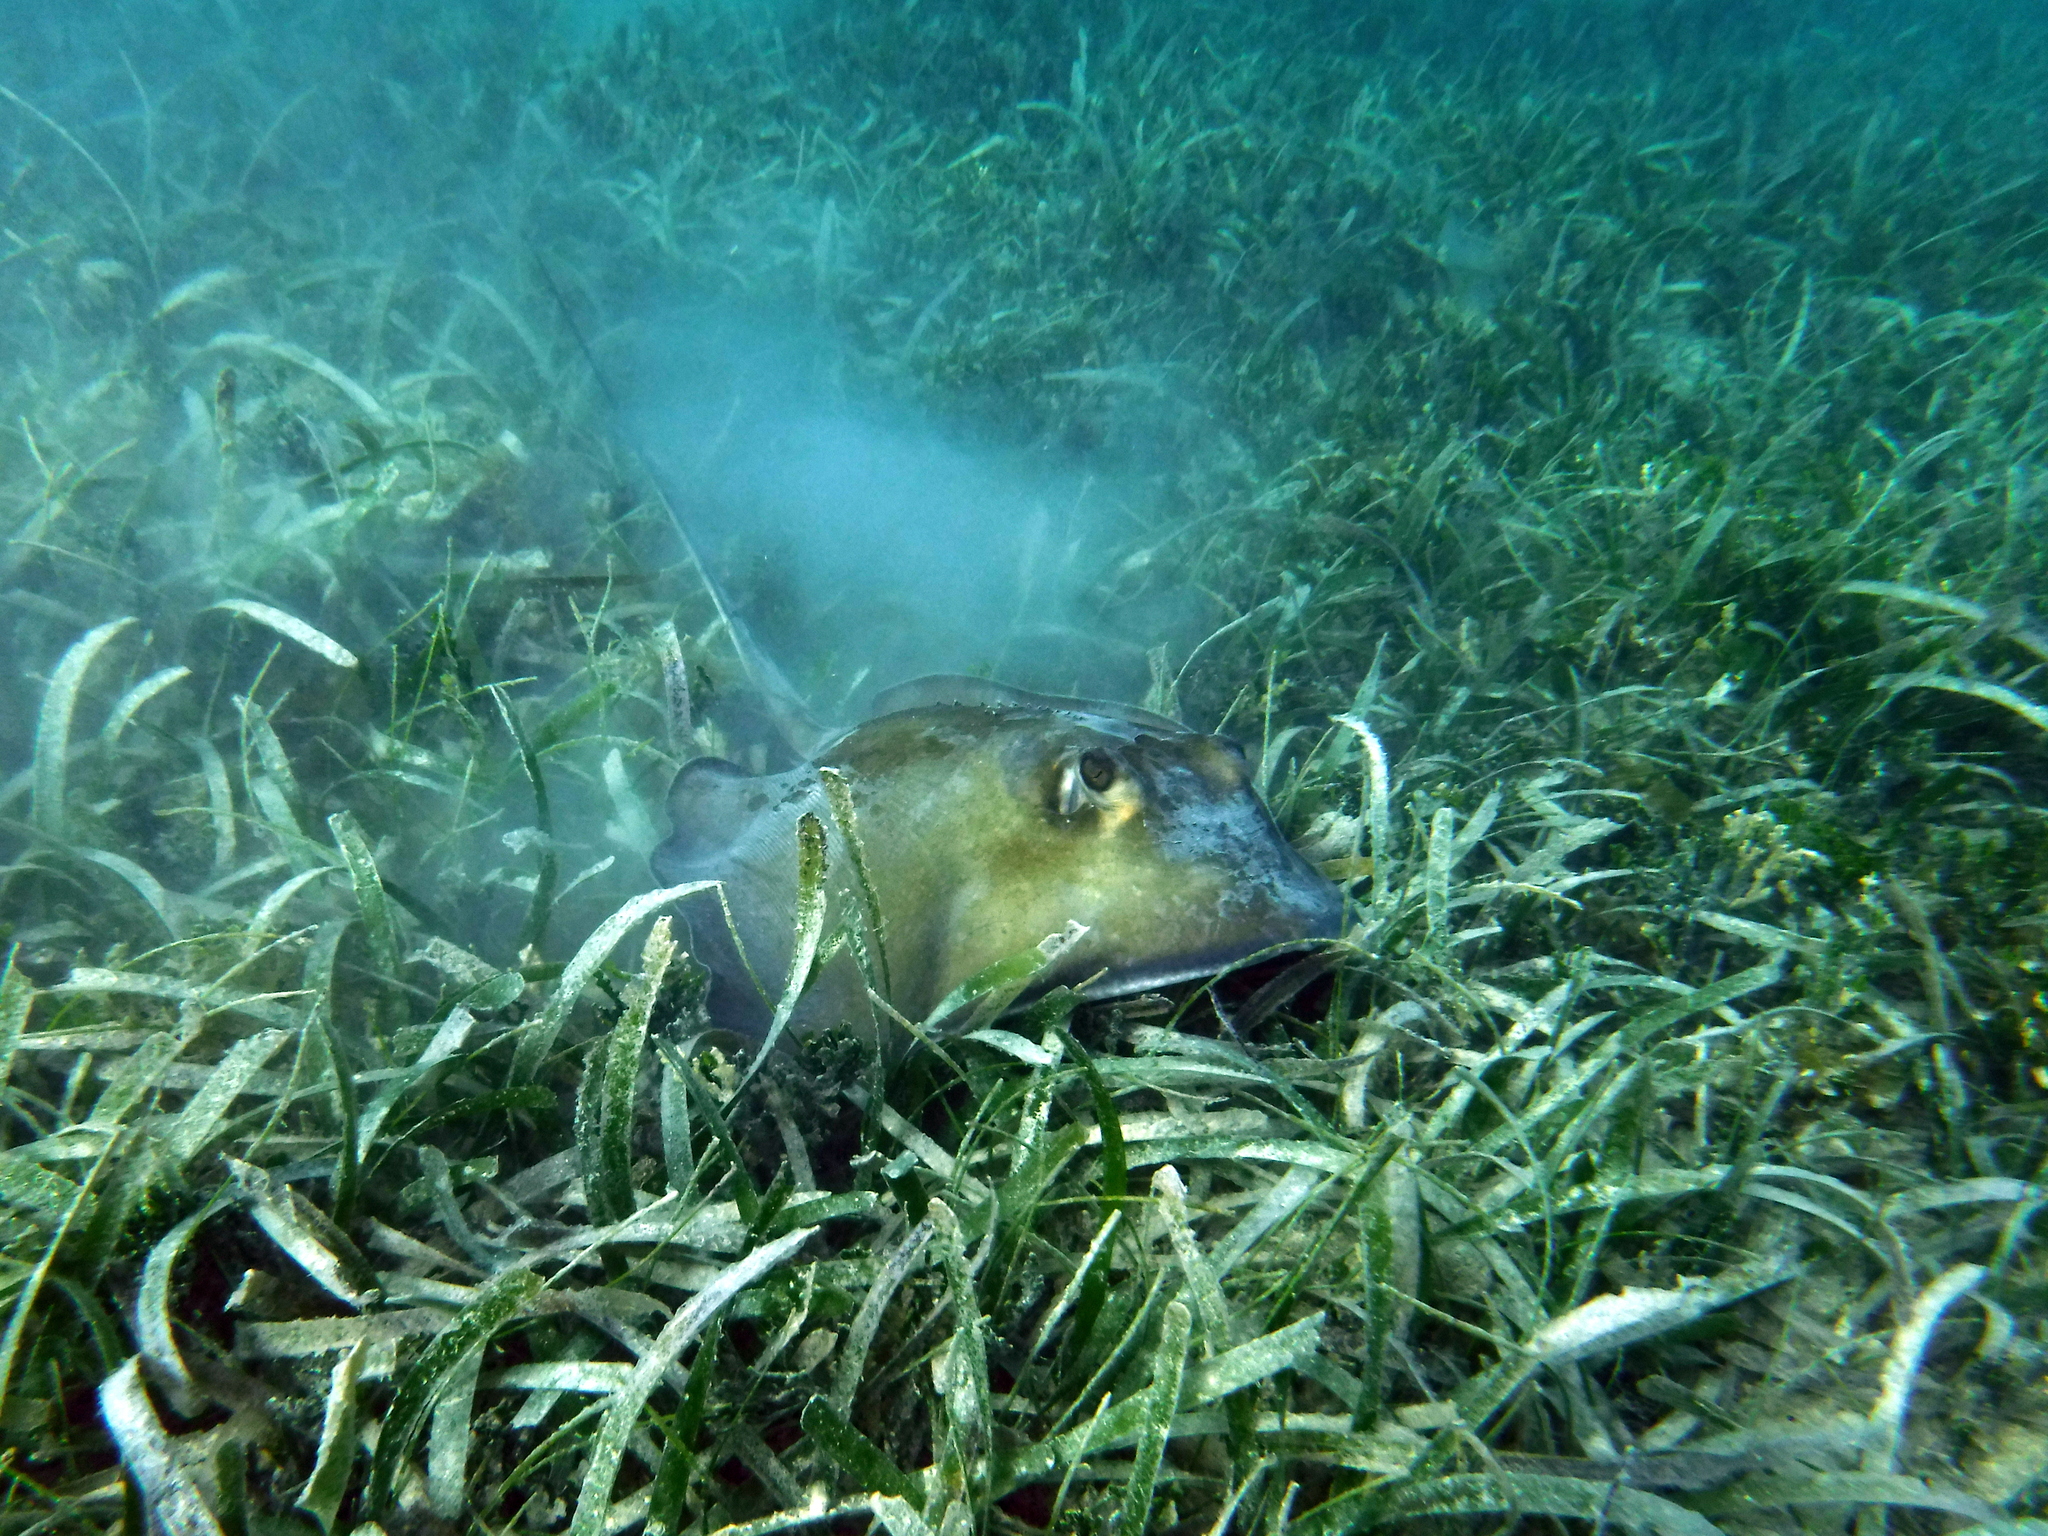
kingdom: Animalia
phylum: Chordata
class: Elasmobranchii
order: Myliobatiformes
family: Dasyatidae
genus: Hypanus
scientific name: Hypanus americanus
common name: Southern stingray
